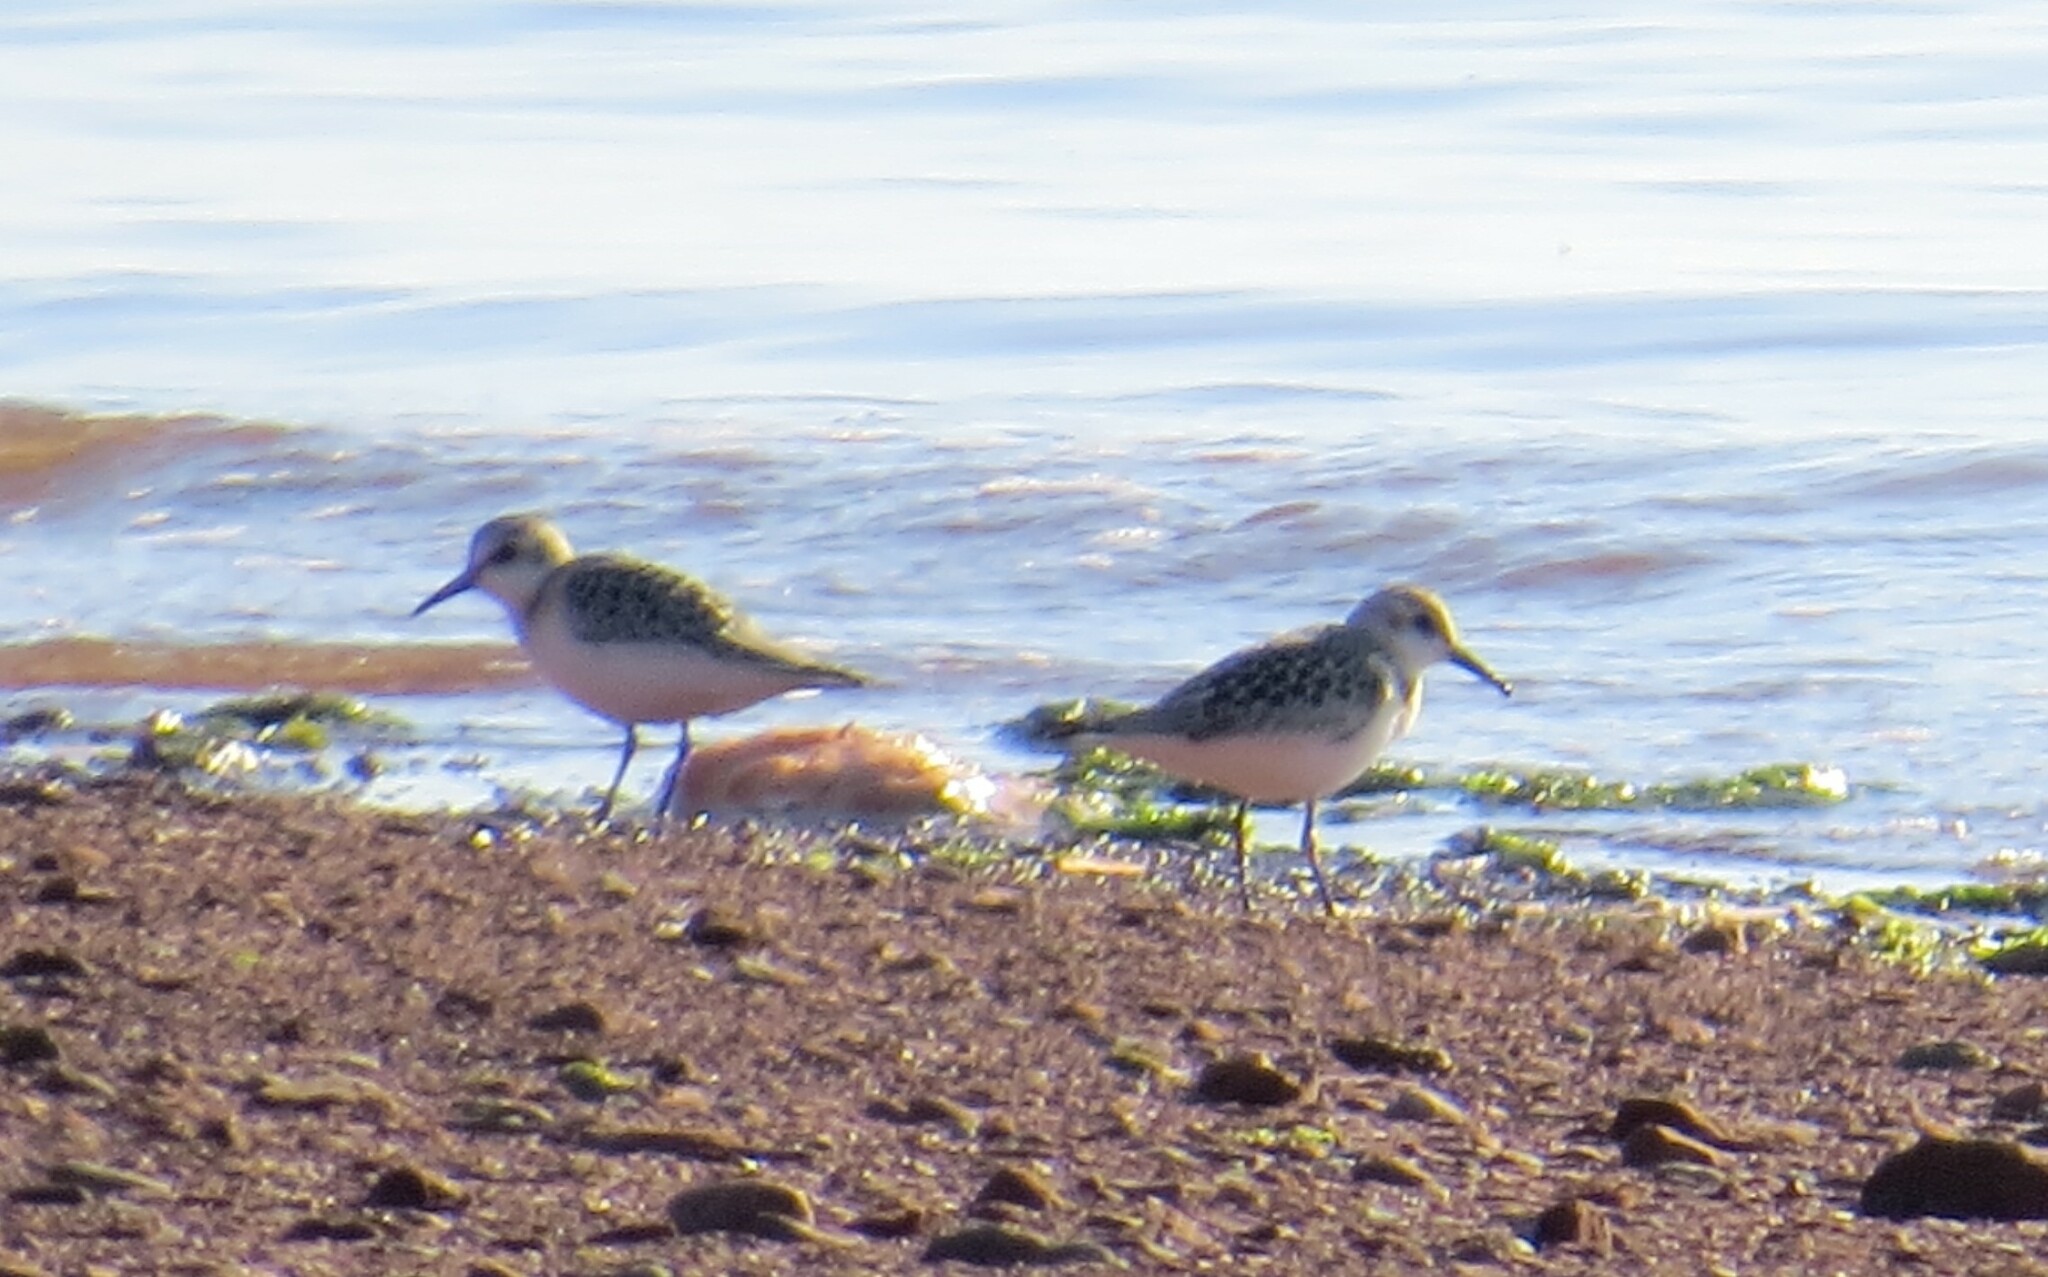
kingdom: Animalia
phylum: Chordata
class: Aves
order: Charadriiformes
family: Scolopacidae
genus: Calidris
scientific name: Calidris alba
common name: Sanderling
